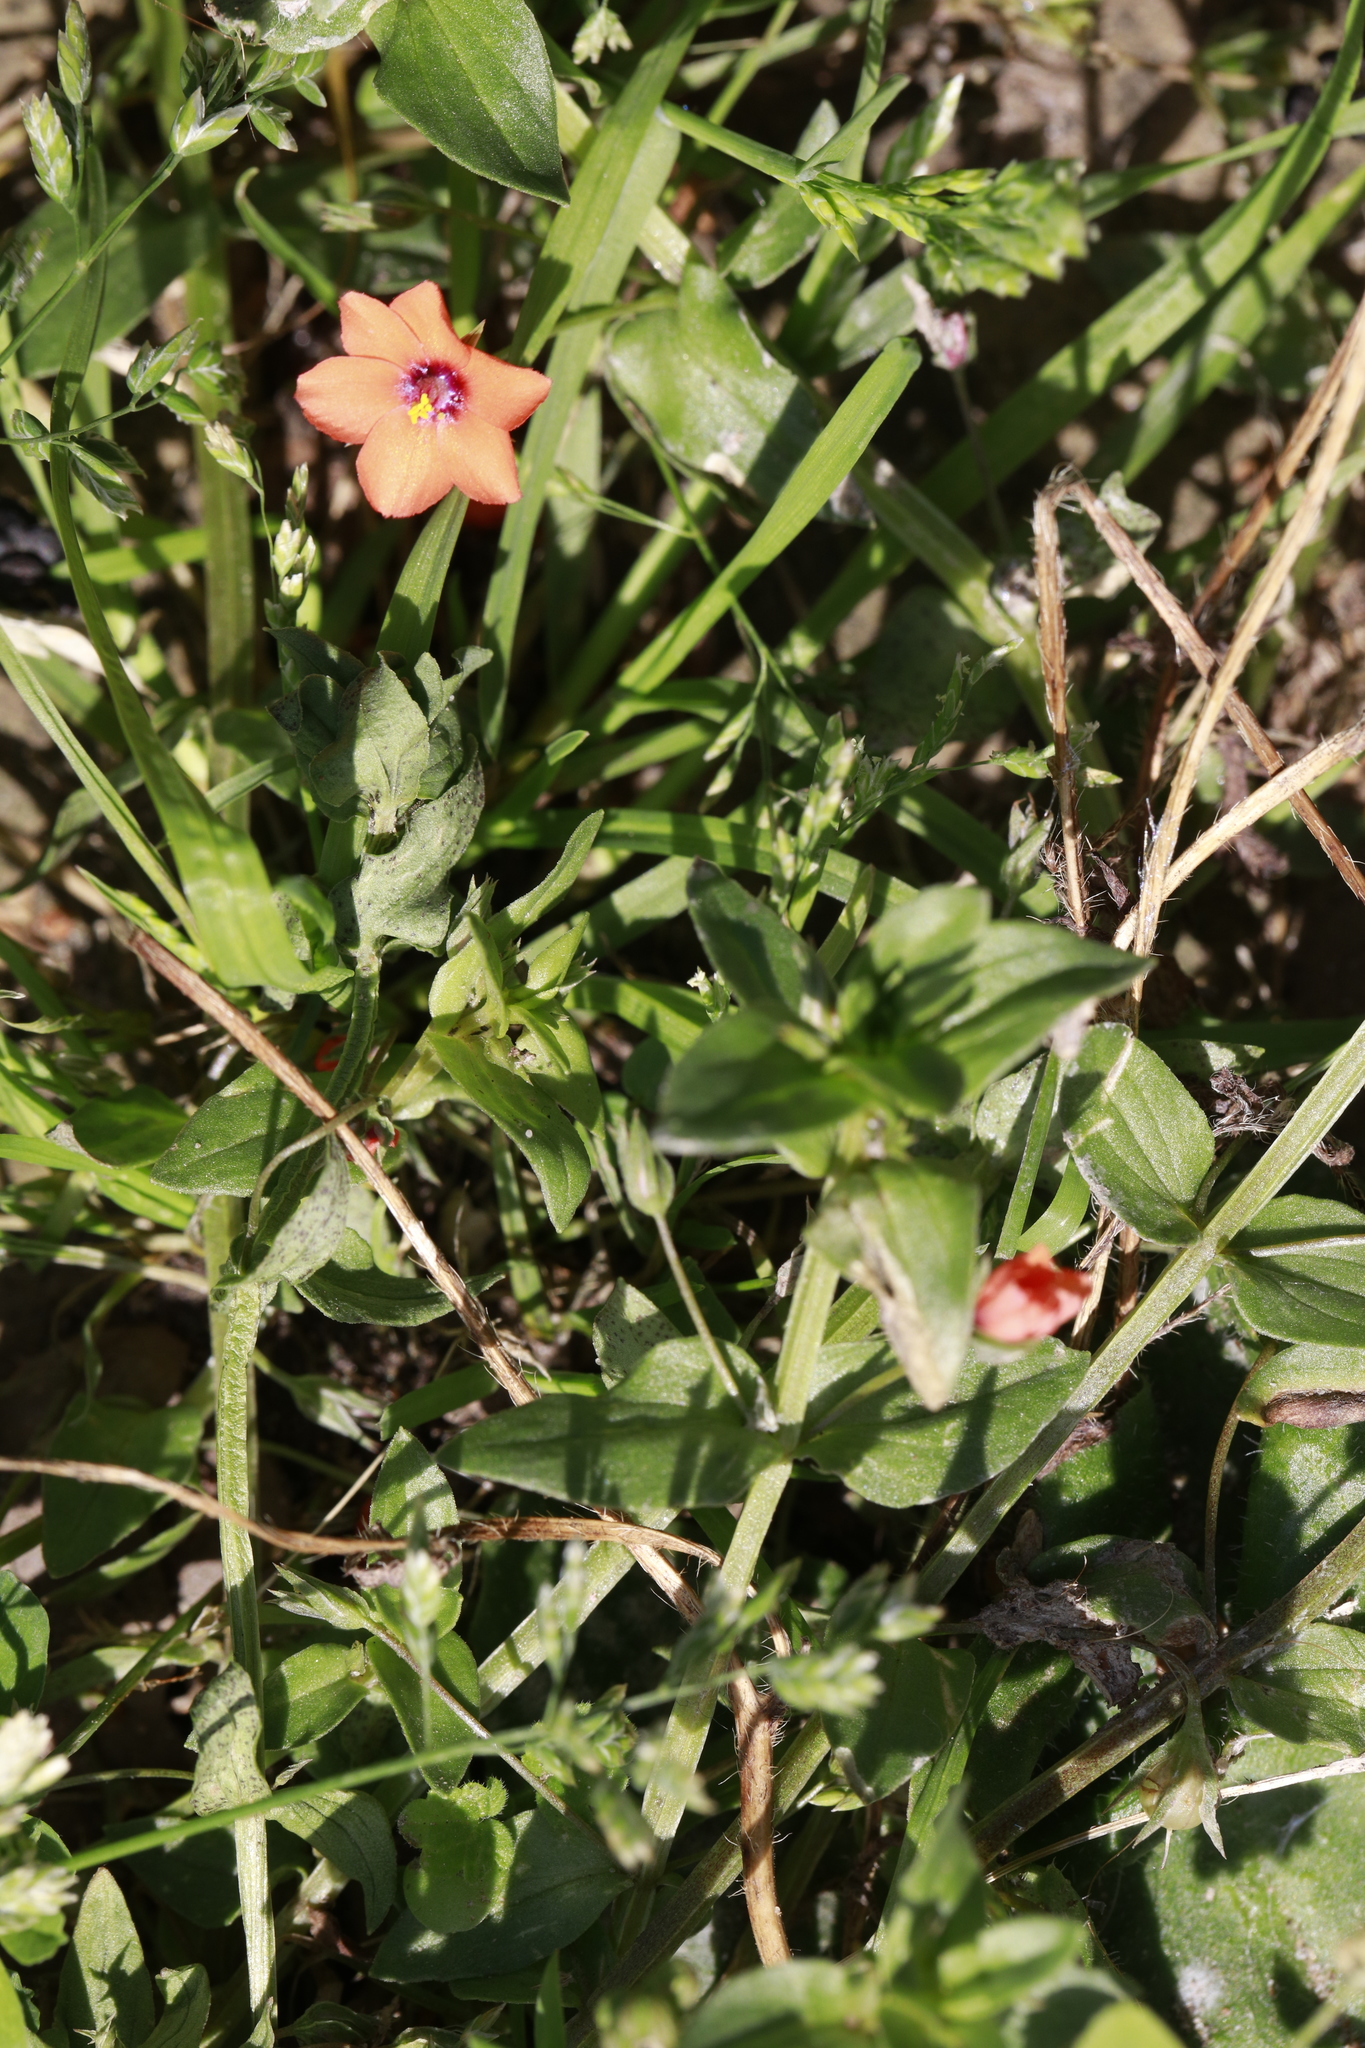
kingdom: Plantae
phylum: Tracheophyta
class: Magnoliopsida
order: Ericales
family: Primulaceae
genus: Lysimachia
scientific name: Lysimachia arvensis
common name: Scarlet pimpernel
